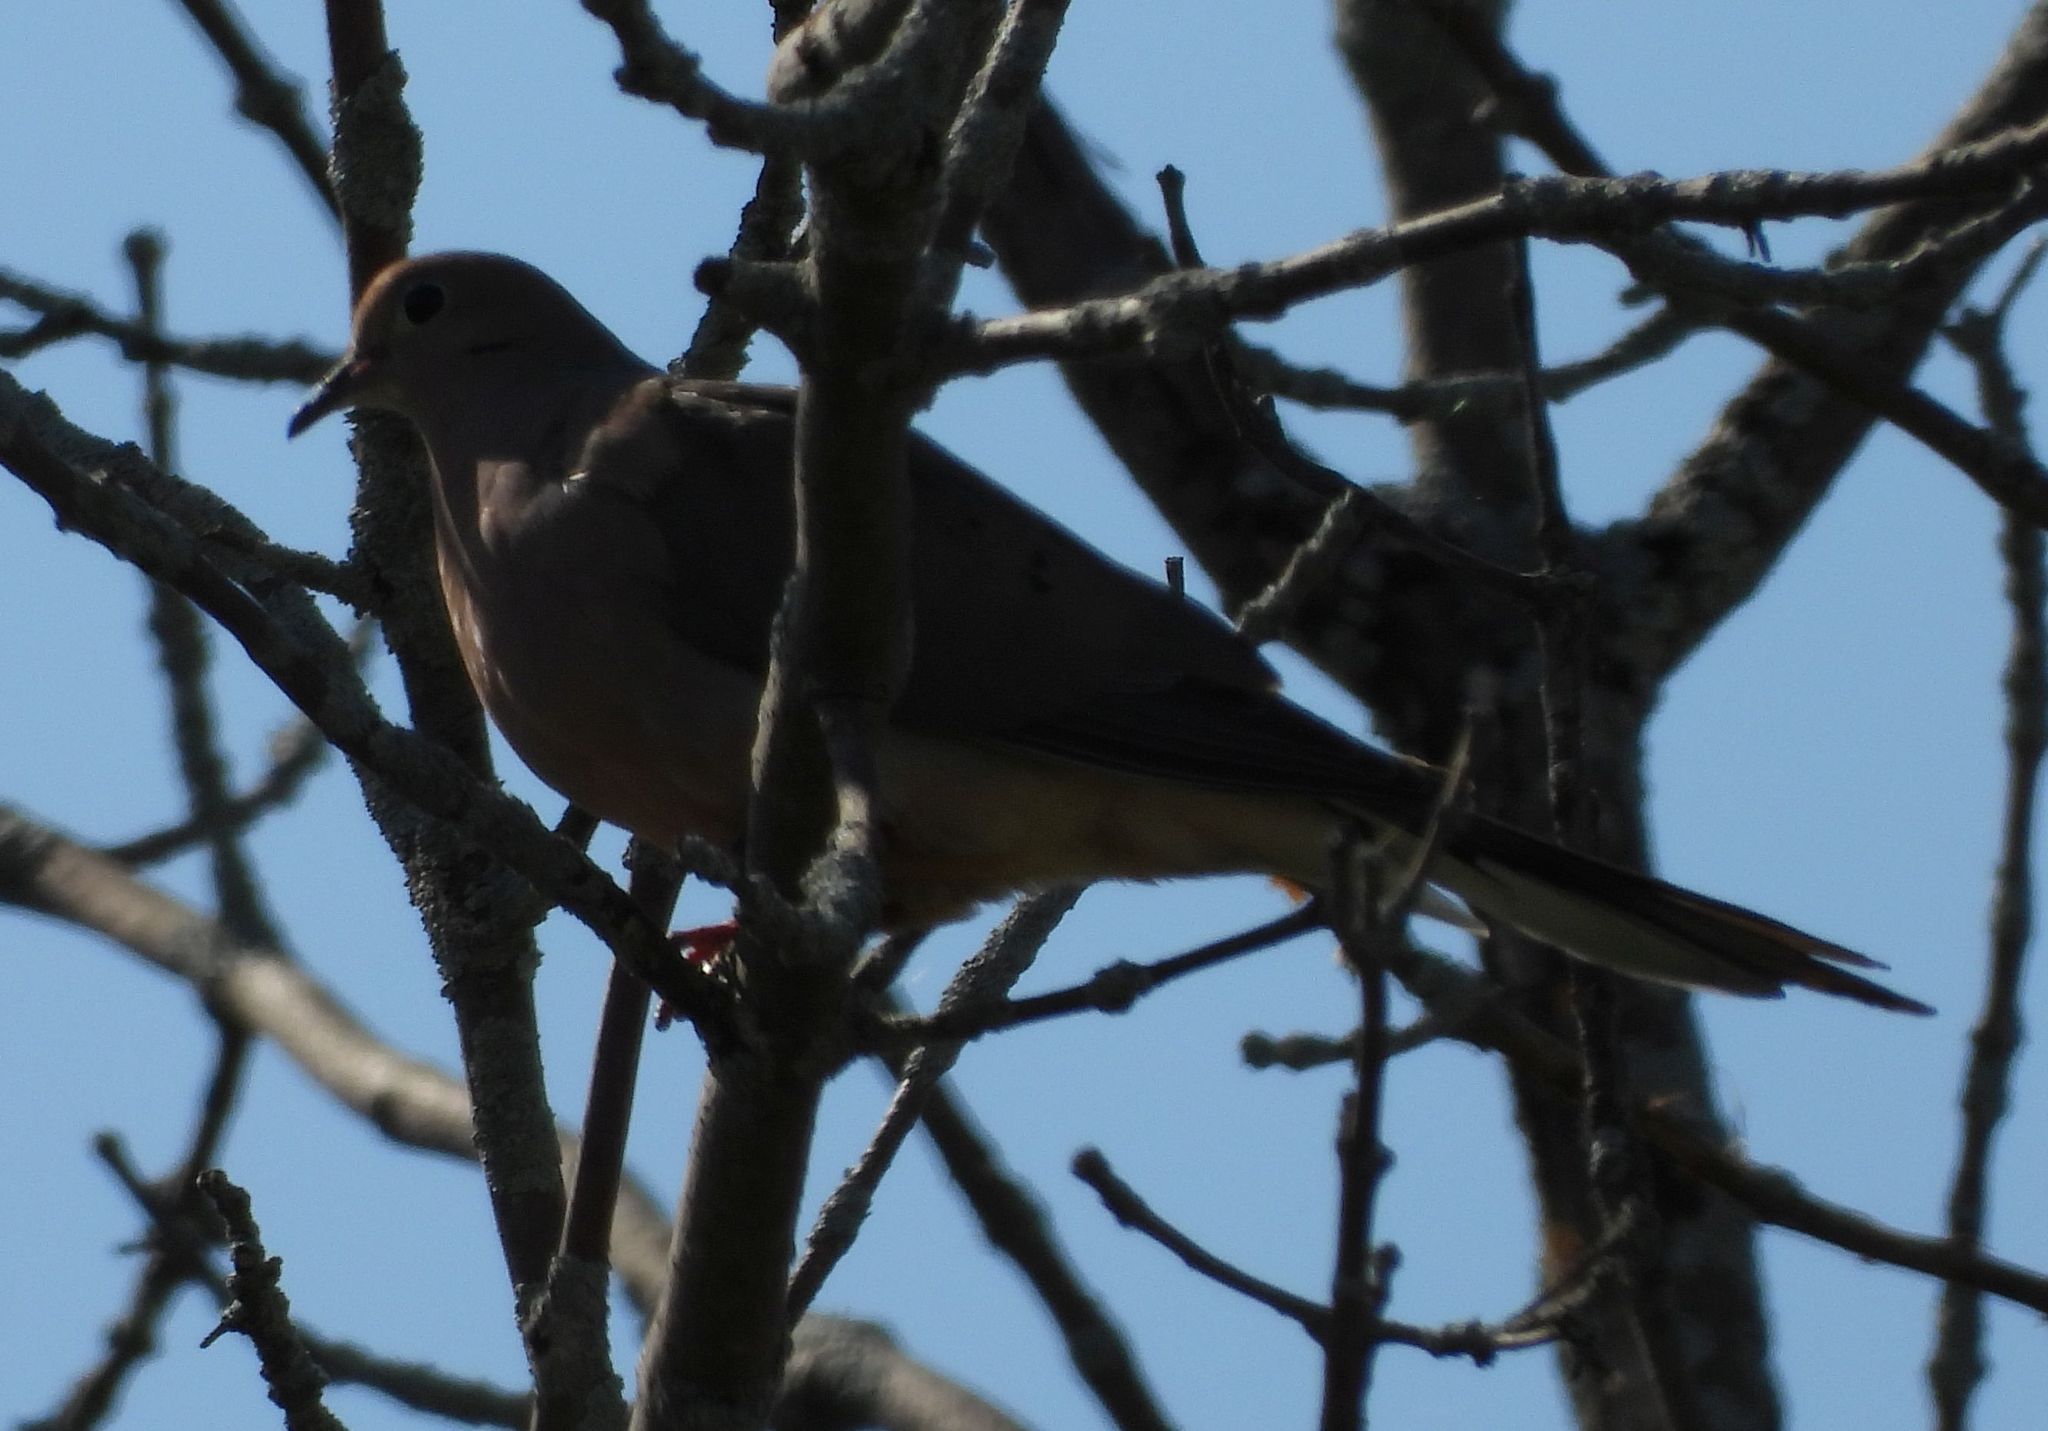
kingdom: Animalia
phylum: Chordata
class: Aves
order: Columbiformes
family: Columbidae
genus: Zenaida
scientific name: Zenaida macroura
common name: Mourning dove
